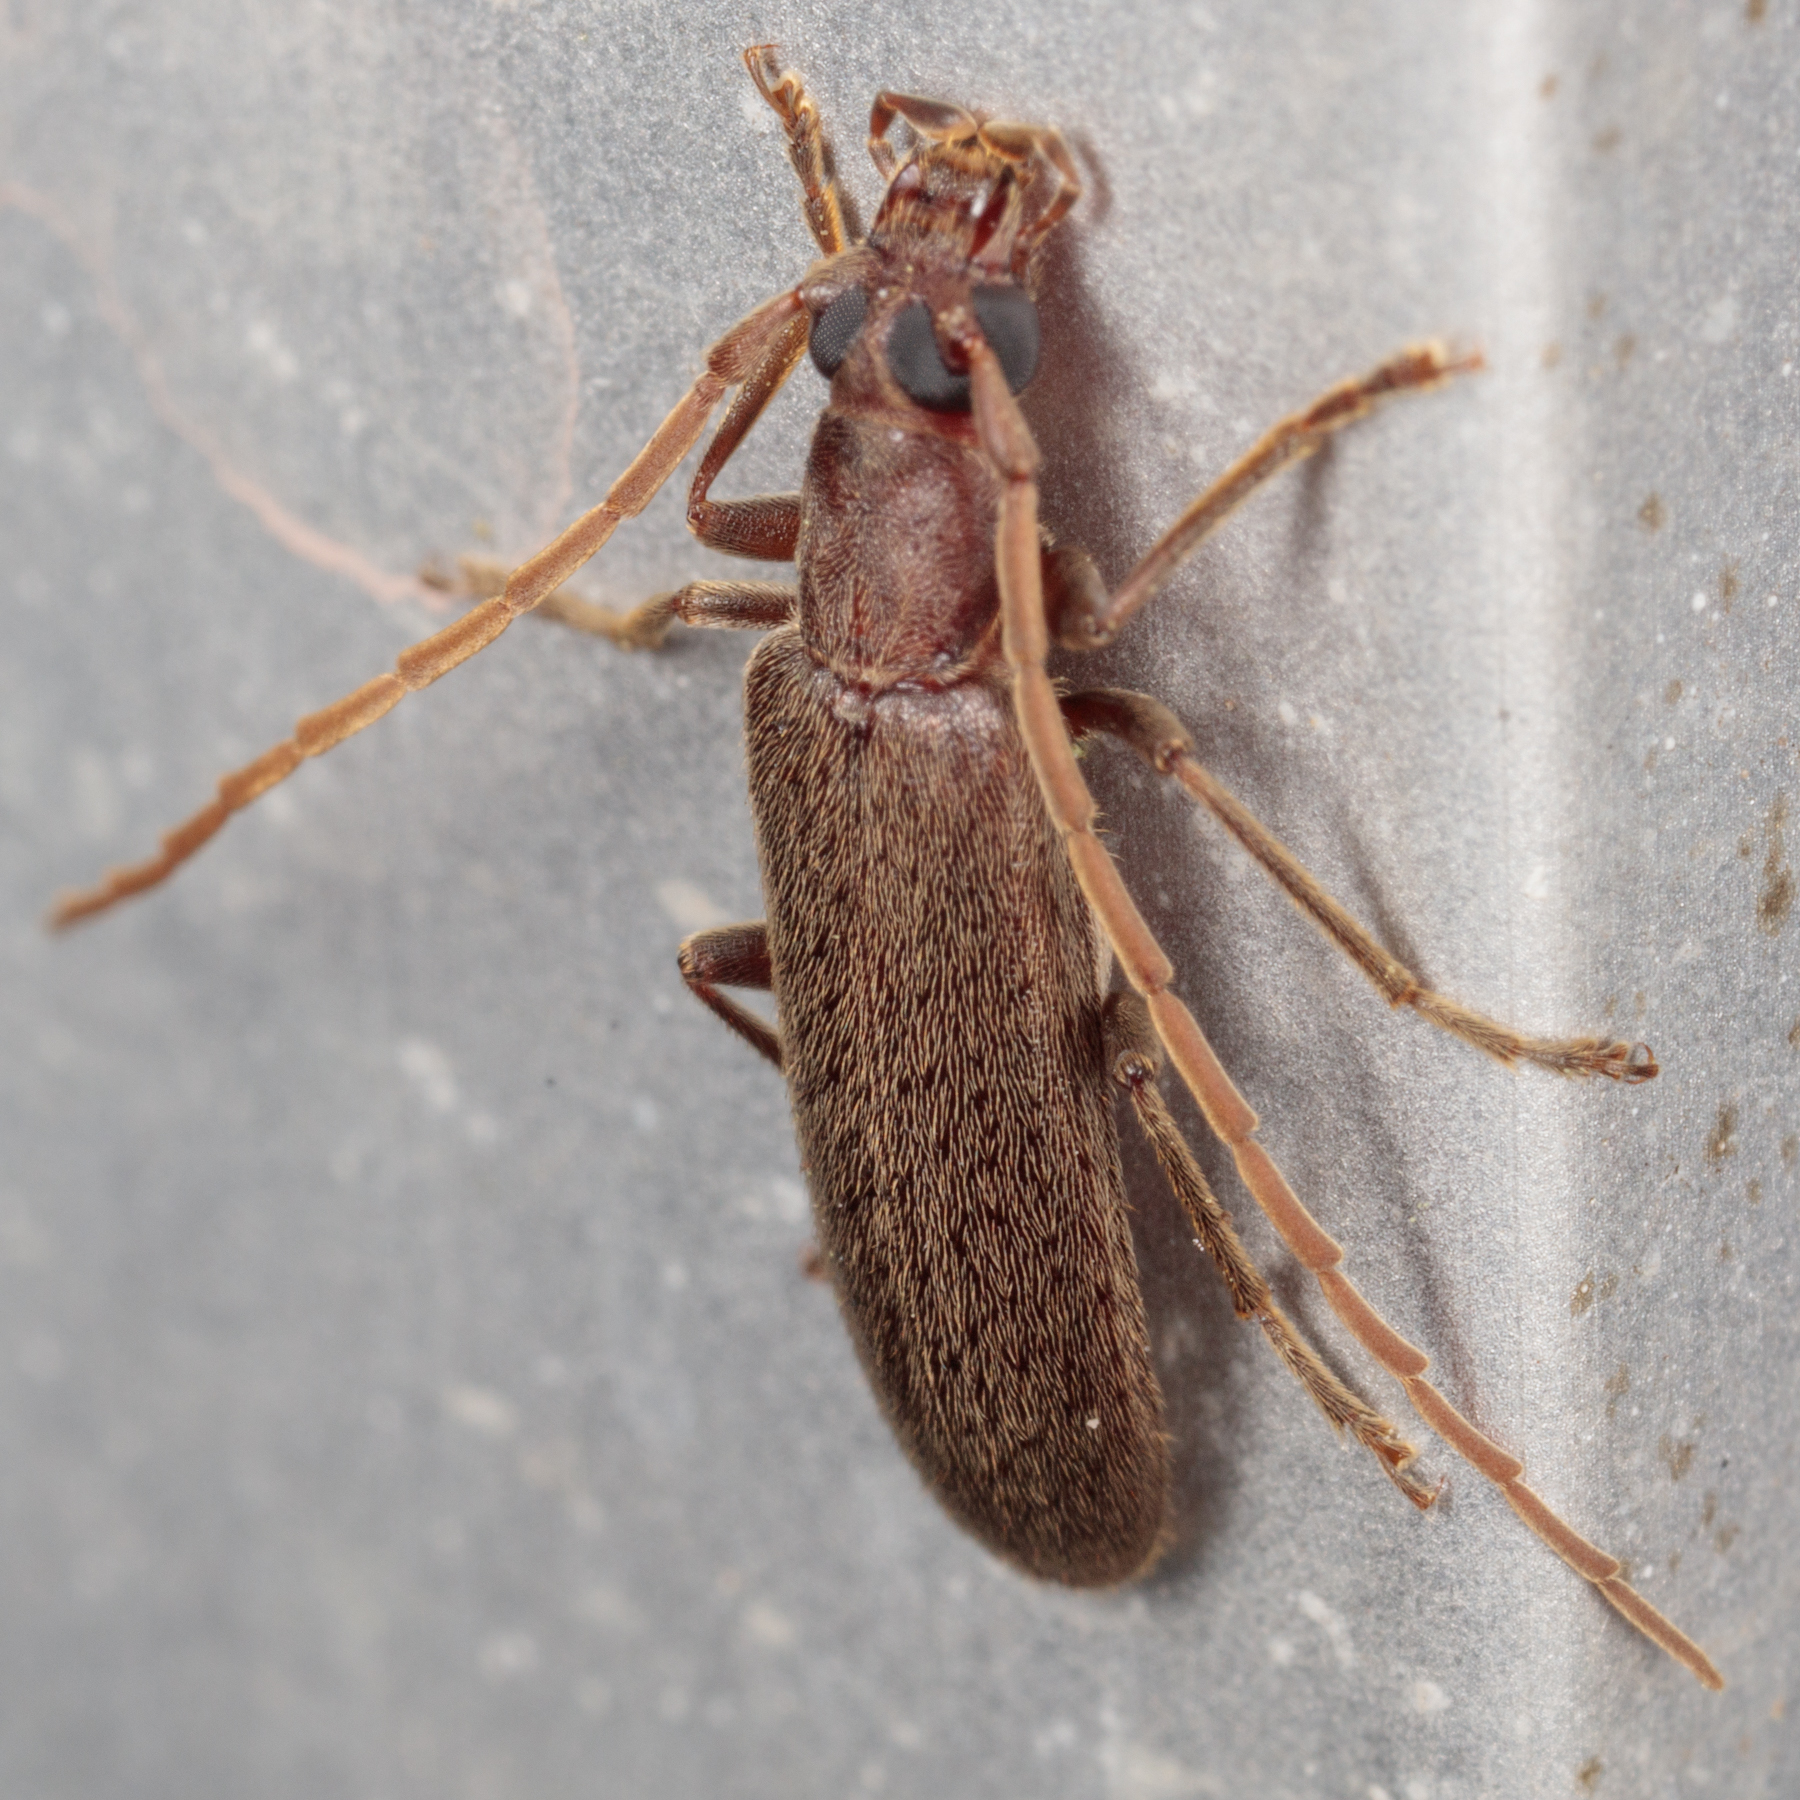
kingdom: Animalia
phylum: Arthropoda
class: Insecta
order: Coleoptera
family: Oedemeridae
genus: Sparedrus
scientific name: Sparedrus aspersus
